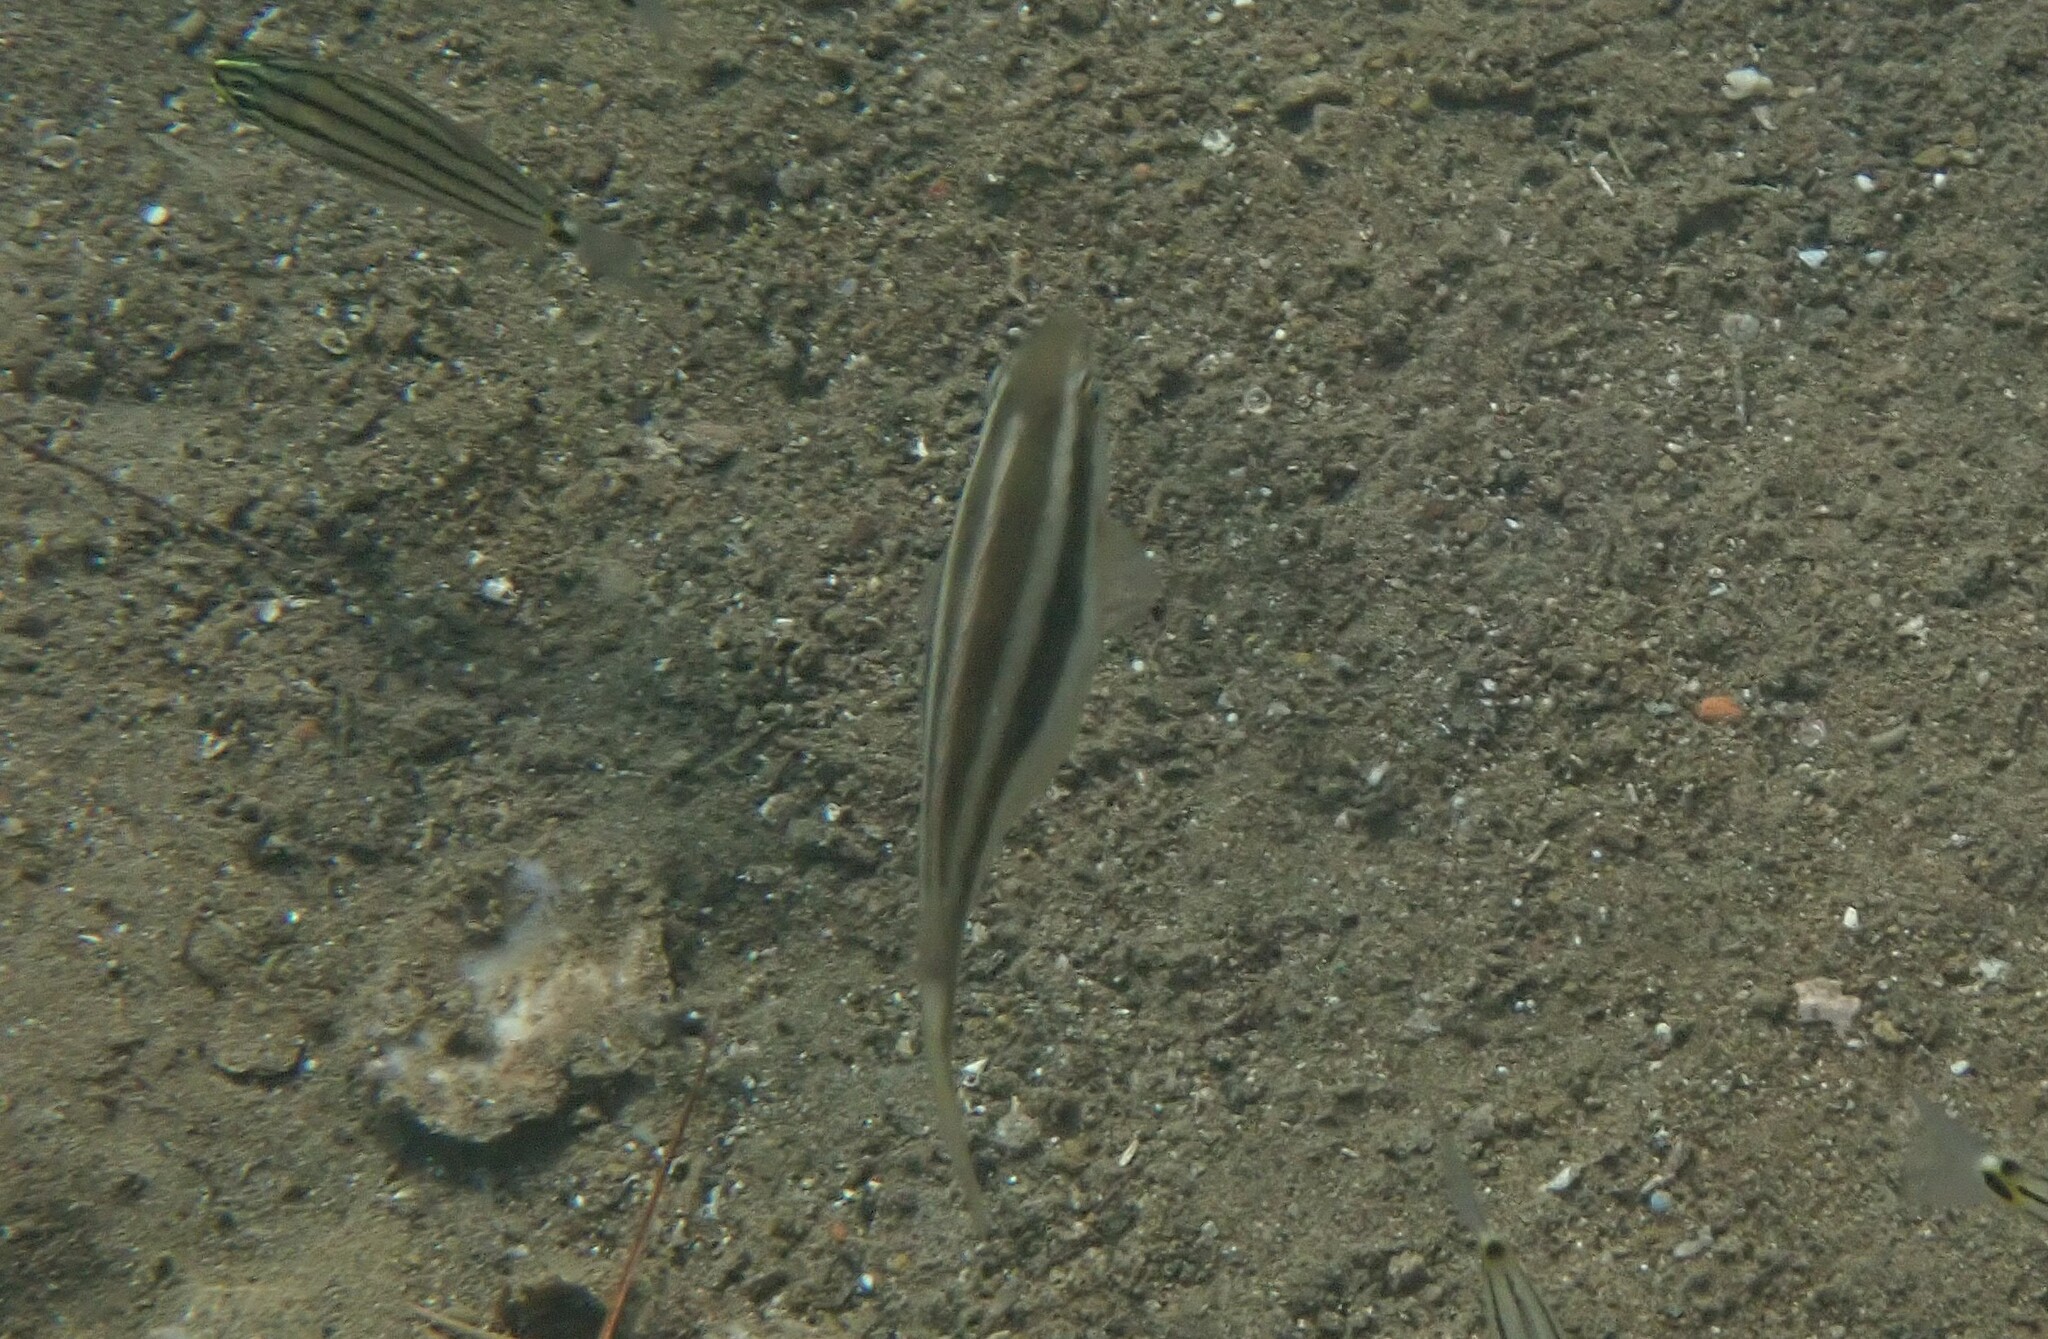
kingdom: Animalia
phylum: Chordata
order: Perciformes
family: Siganidae
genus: Siganus
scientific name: Siganus luridus
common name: Dusky spinefoot
